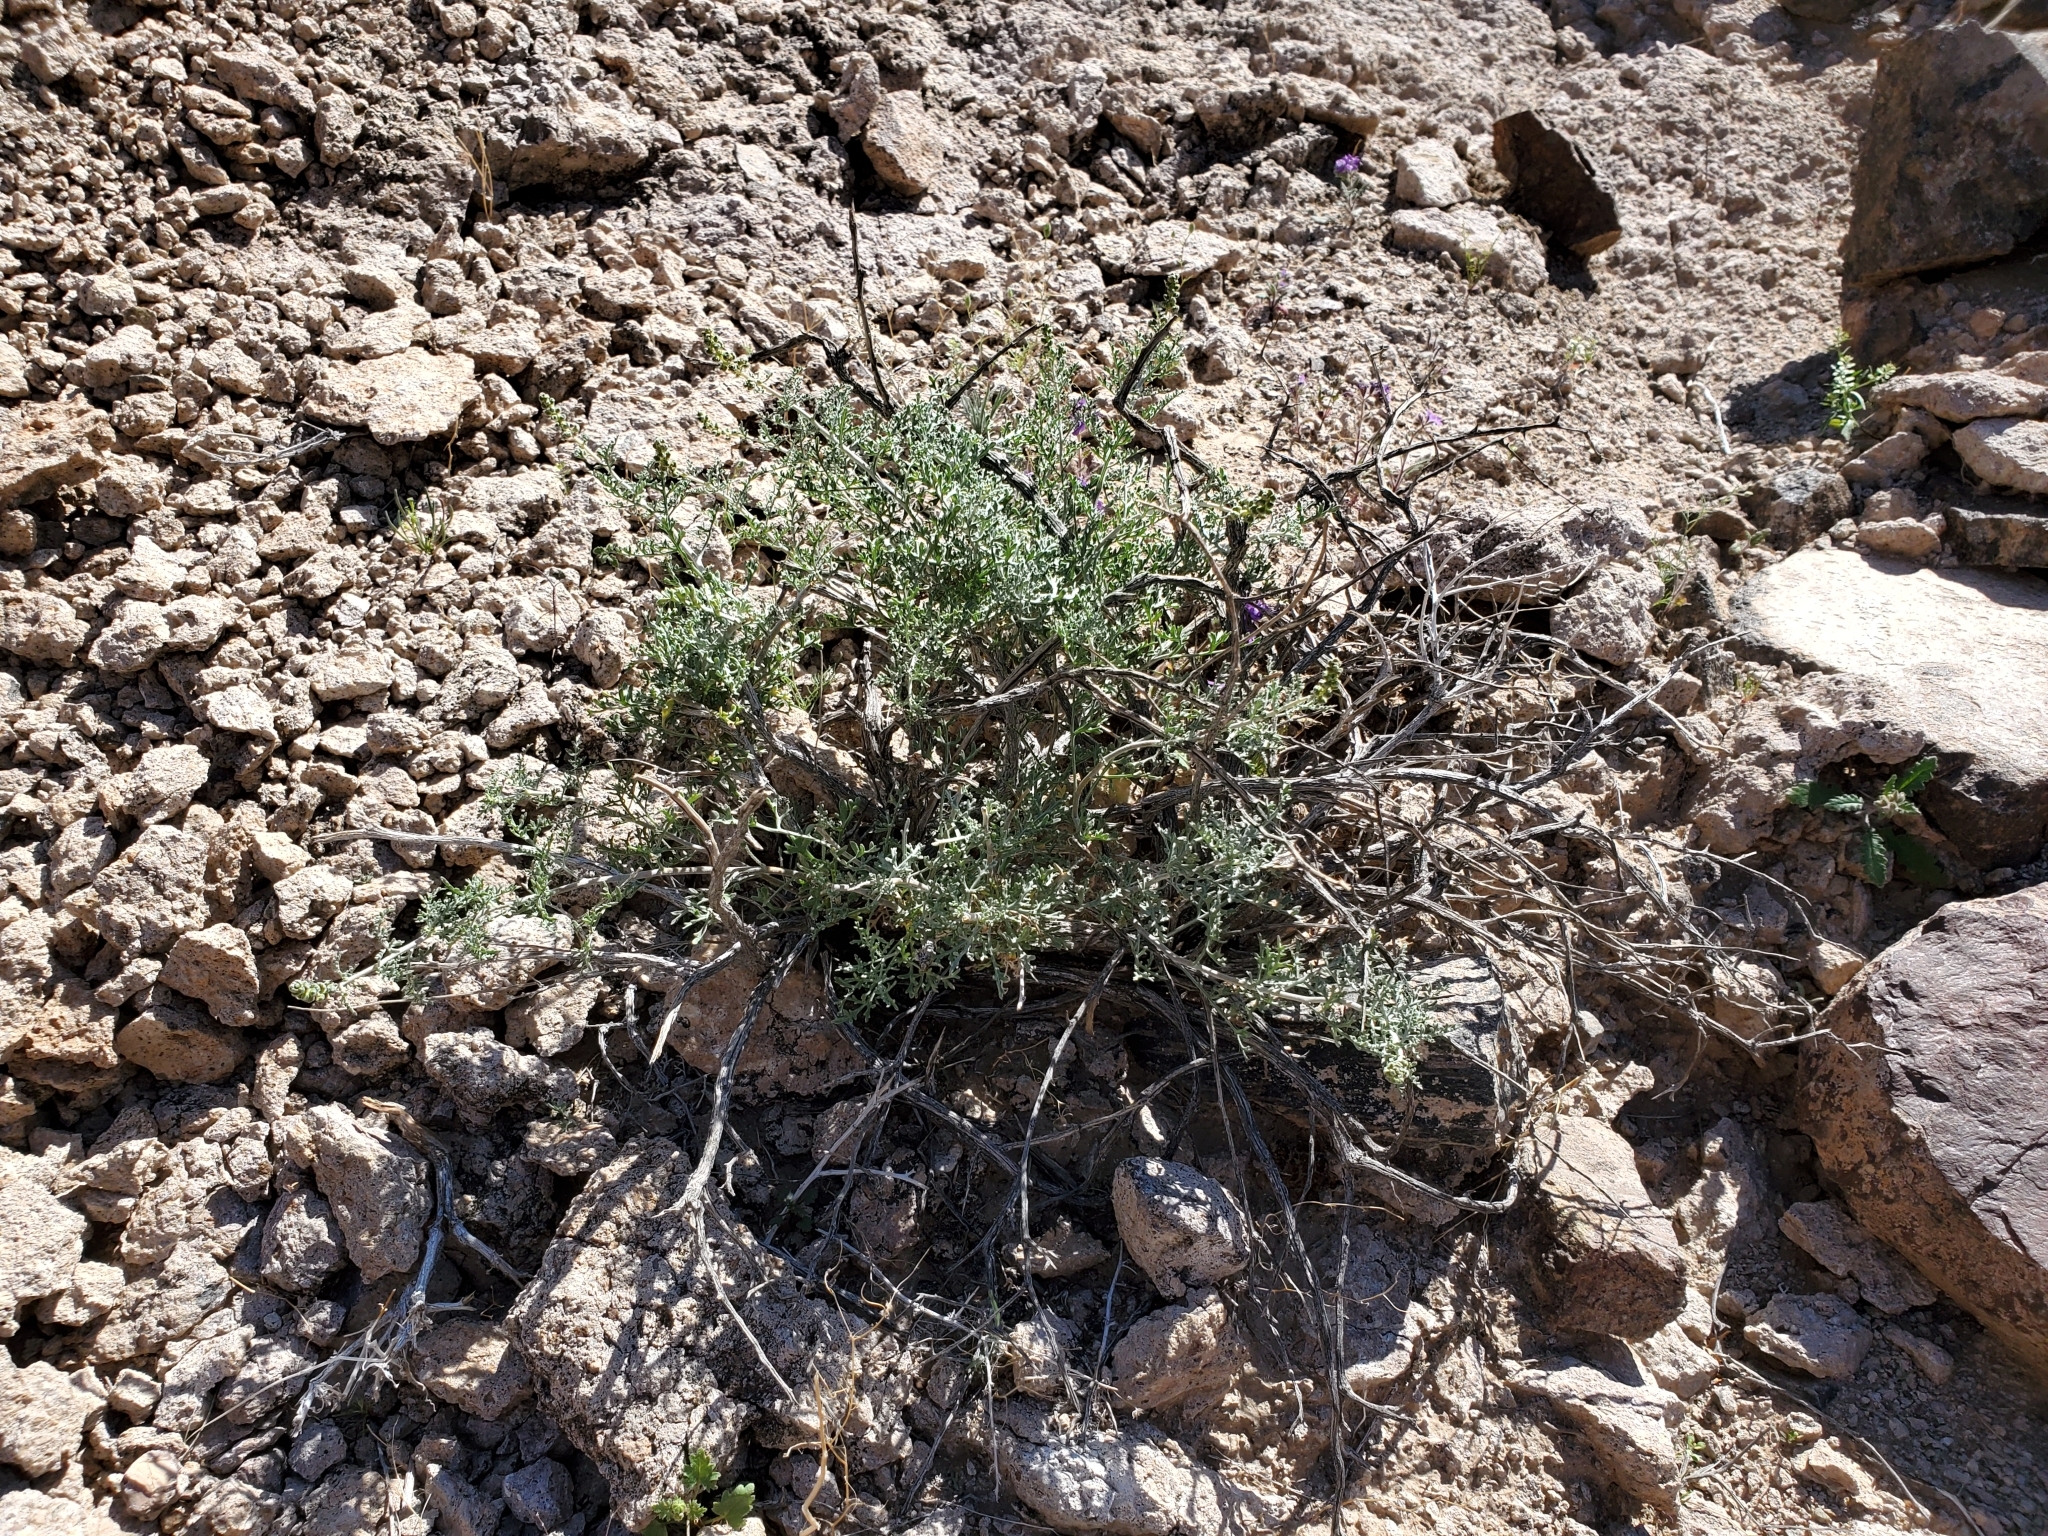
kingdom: Plantae
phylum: Tracheophyta
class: Magnoliopsida
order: Asterales
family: Asteraceae
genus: Ambrosia
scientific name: Ambrosia dumosa
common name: Bur-sage
